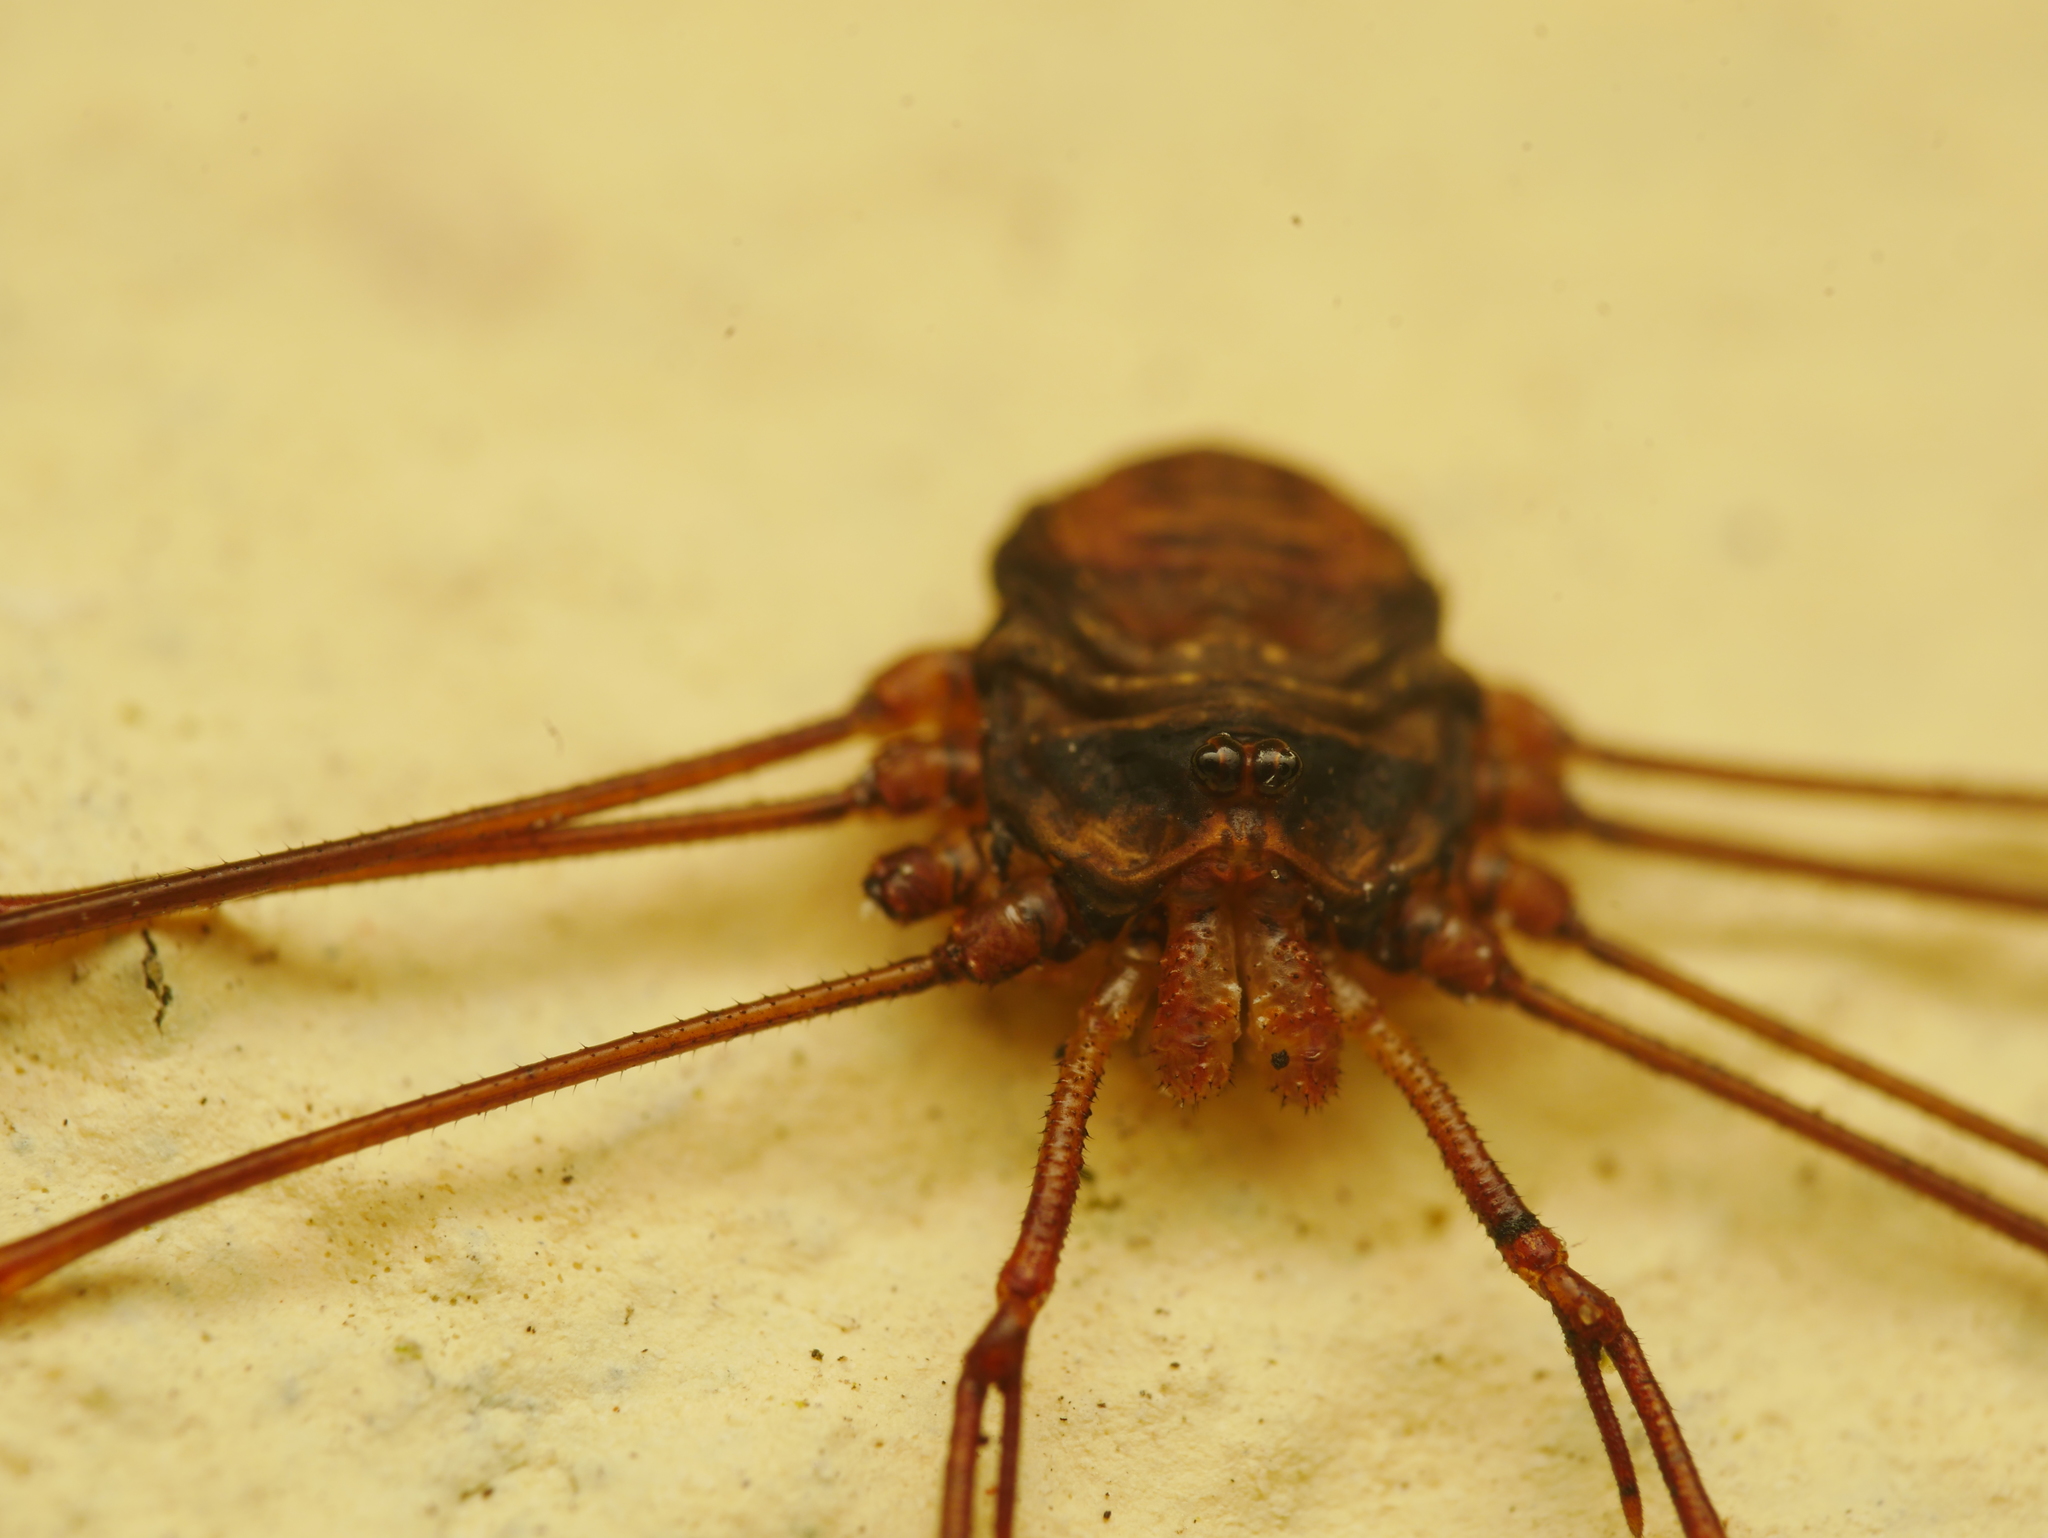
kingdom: Animalia
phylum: Arthropoda
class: Arachnida
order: Opiliones
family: Phalangiidae
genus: Dicranopalpus
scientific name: Dicranopalpus ramosus
